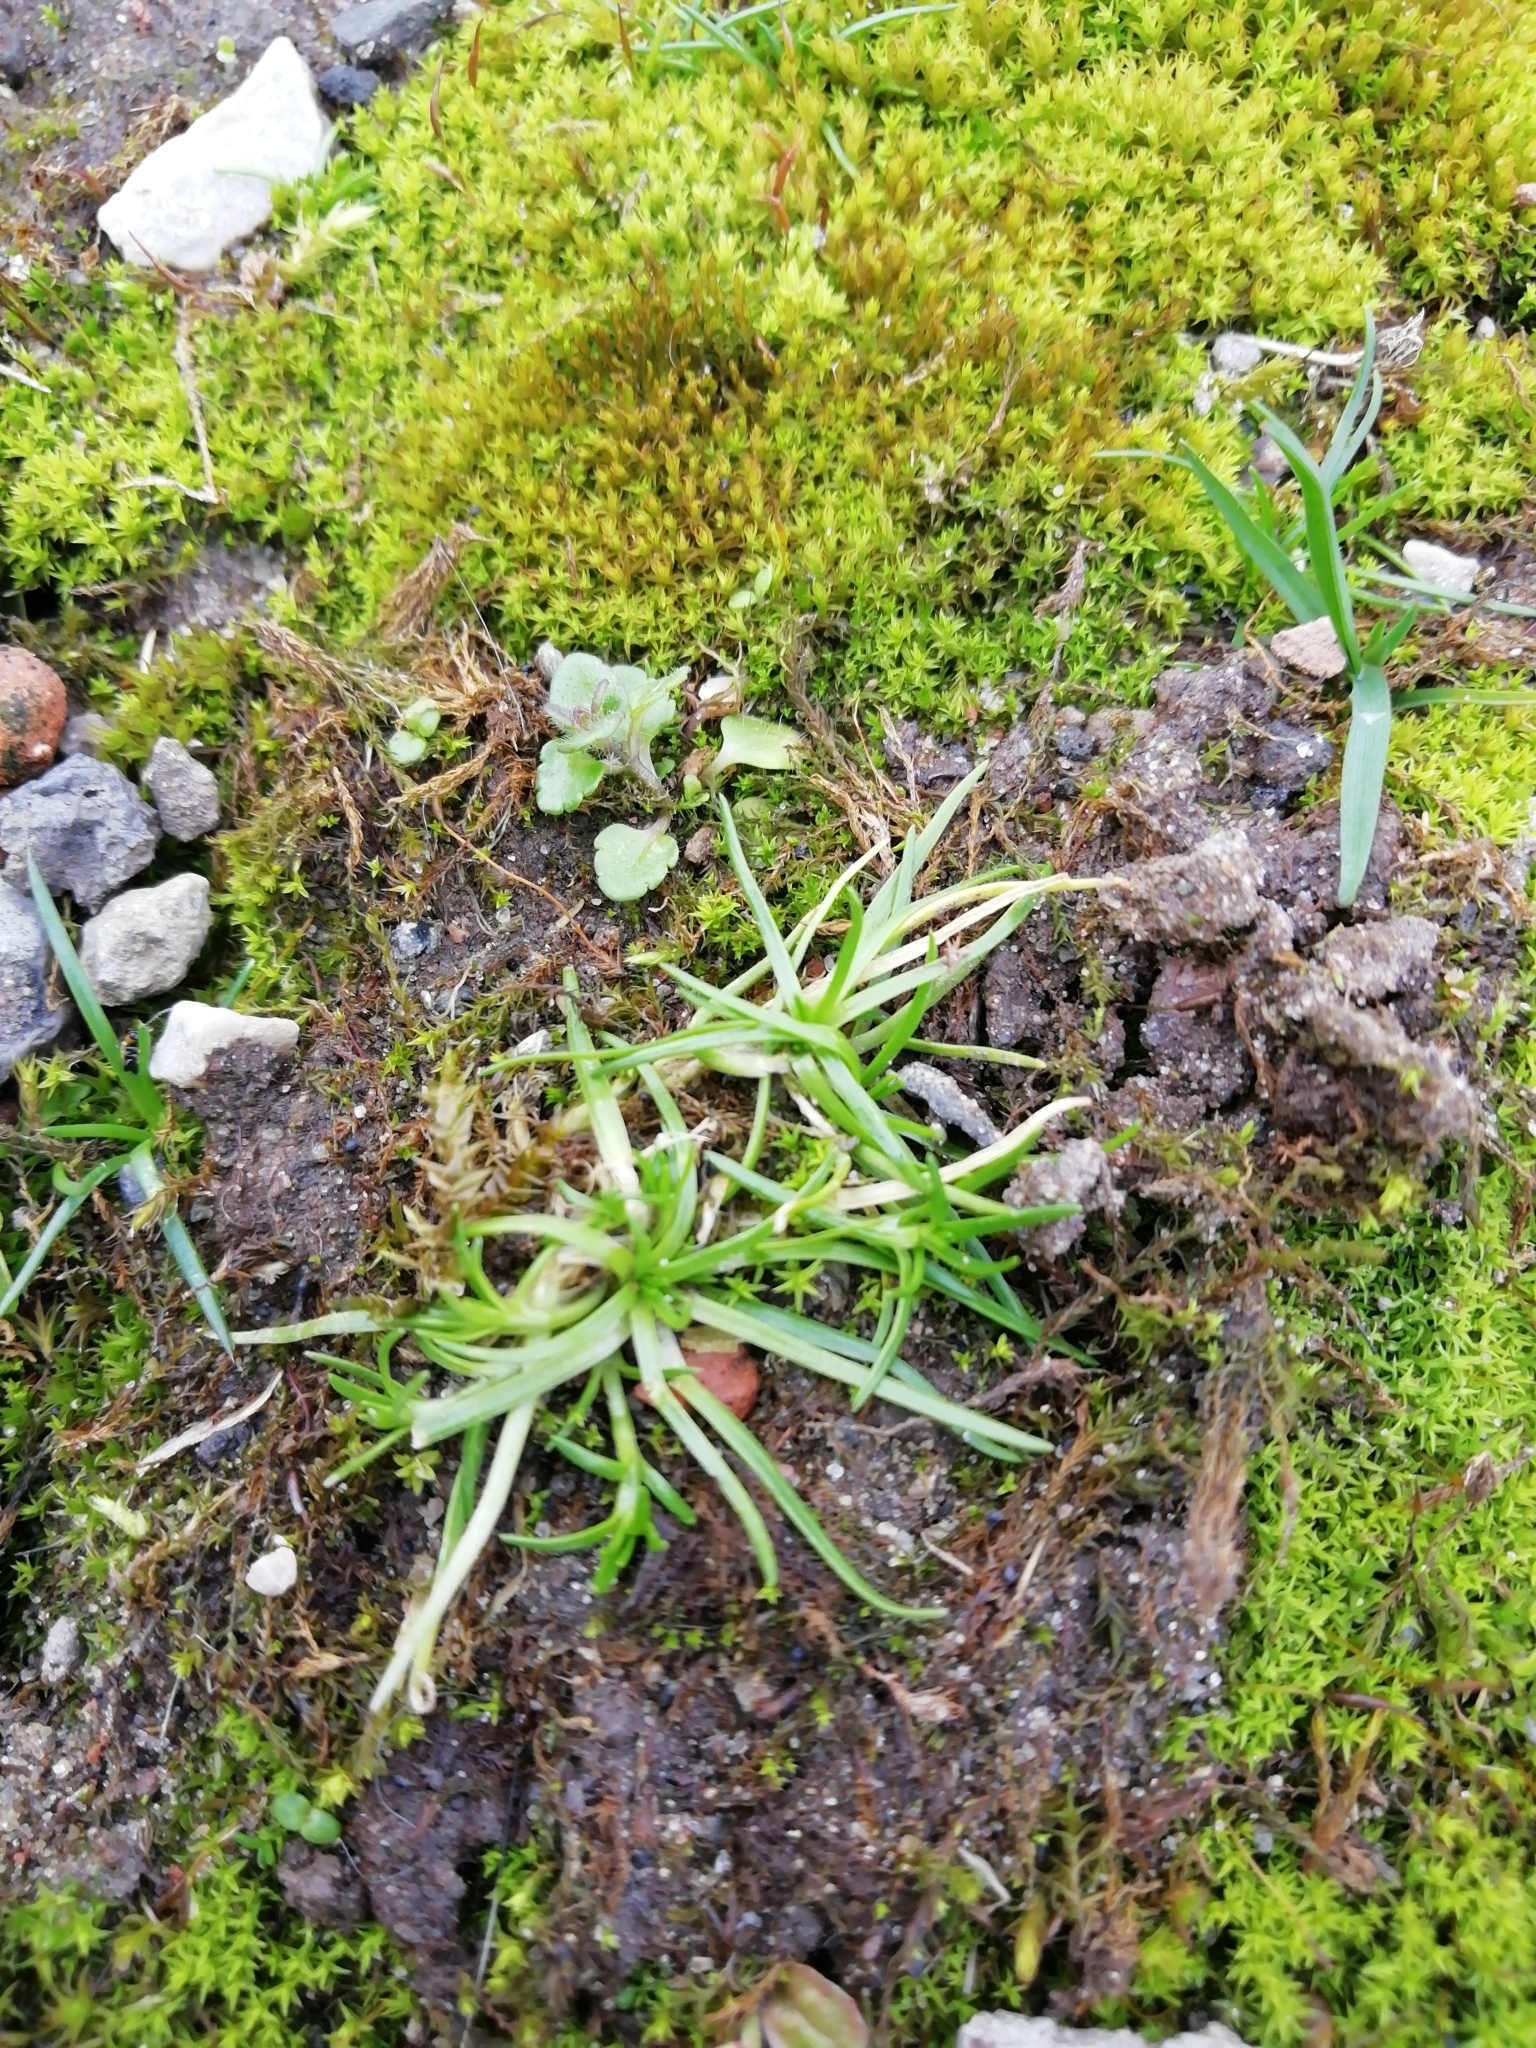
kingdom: Plantae
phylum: Tracheophyta
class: Magnoliopsida
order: Caryophyllales
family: Caryophyllaceae
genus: Sagina
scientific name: Sagina procumbens
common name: Procumbent pearlwort
